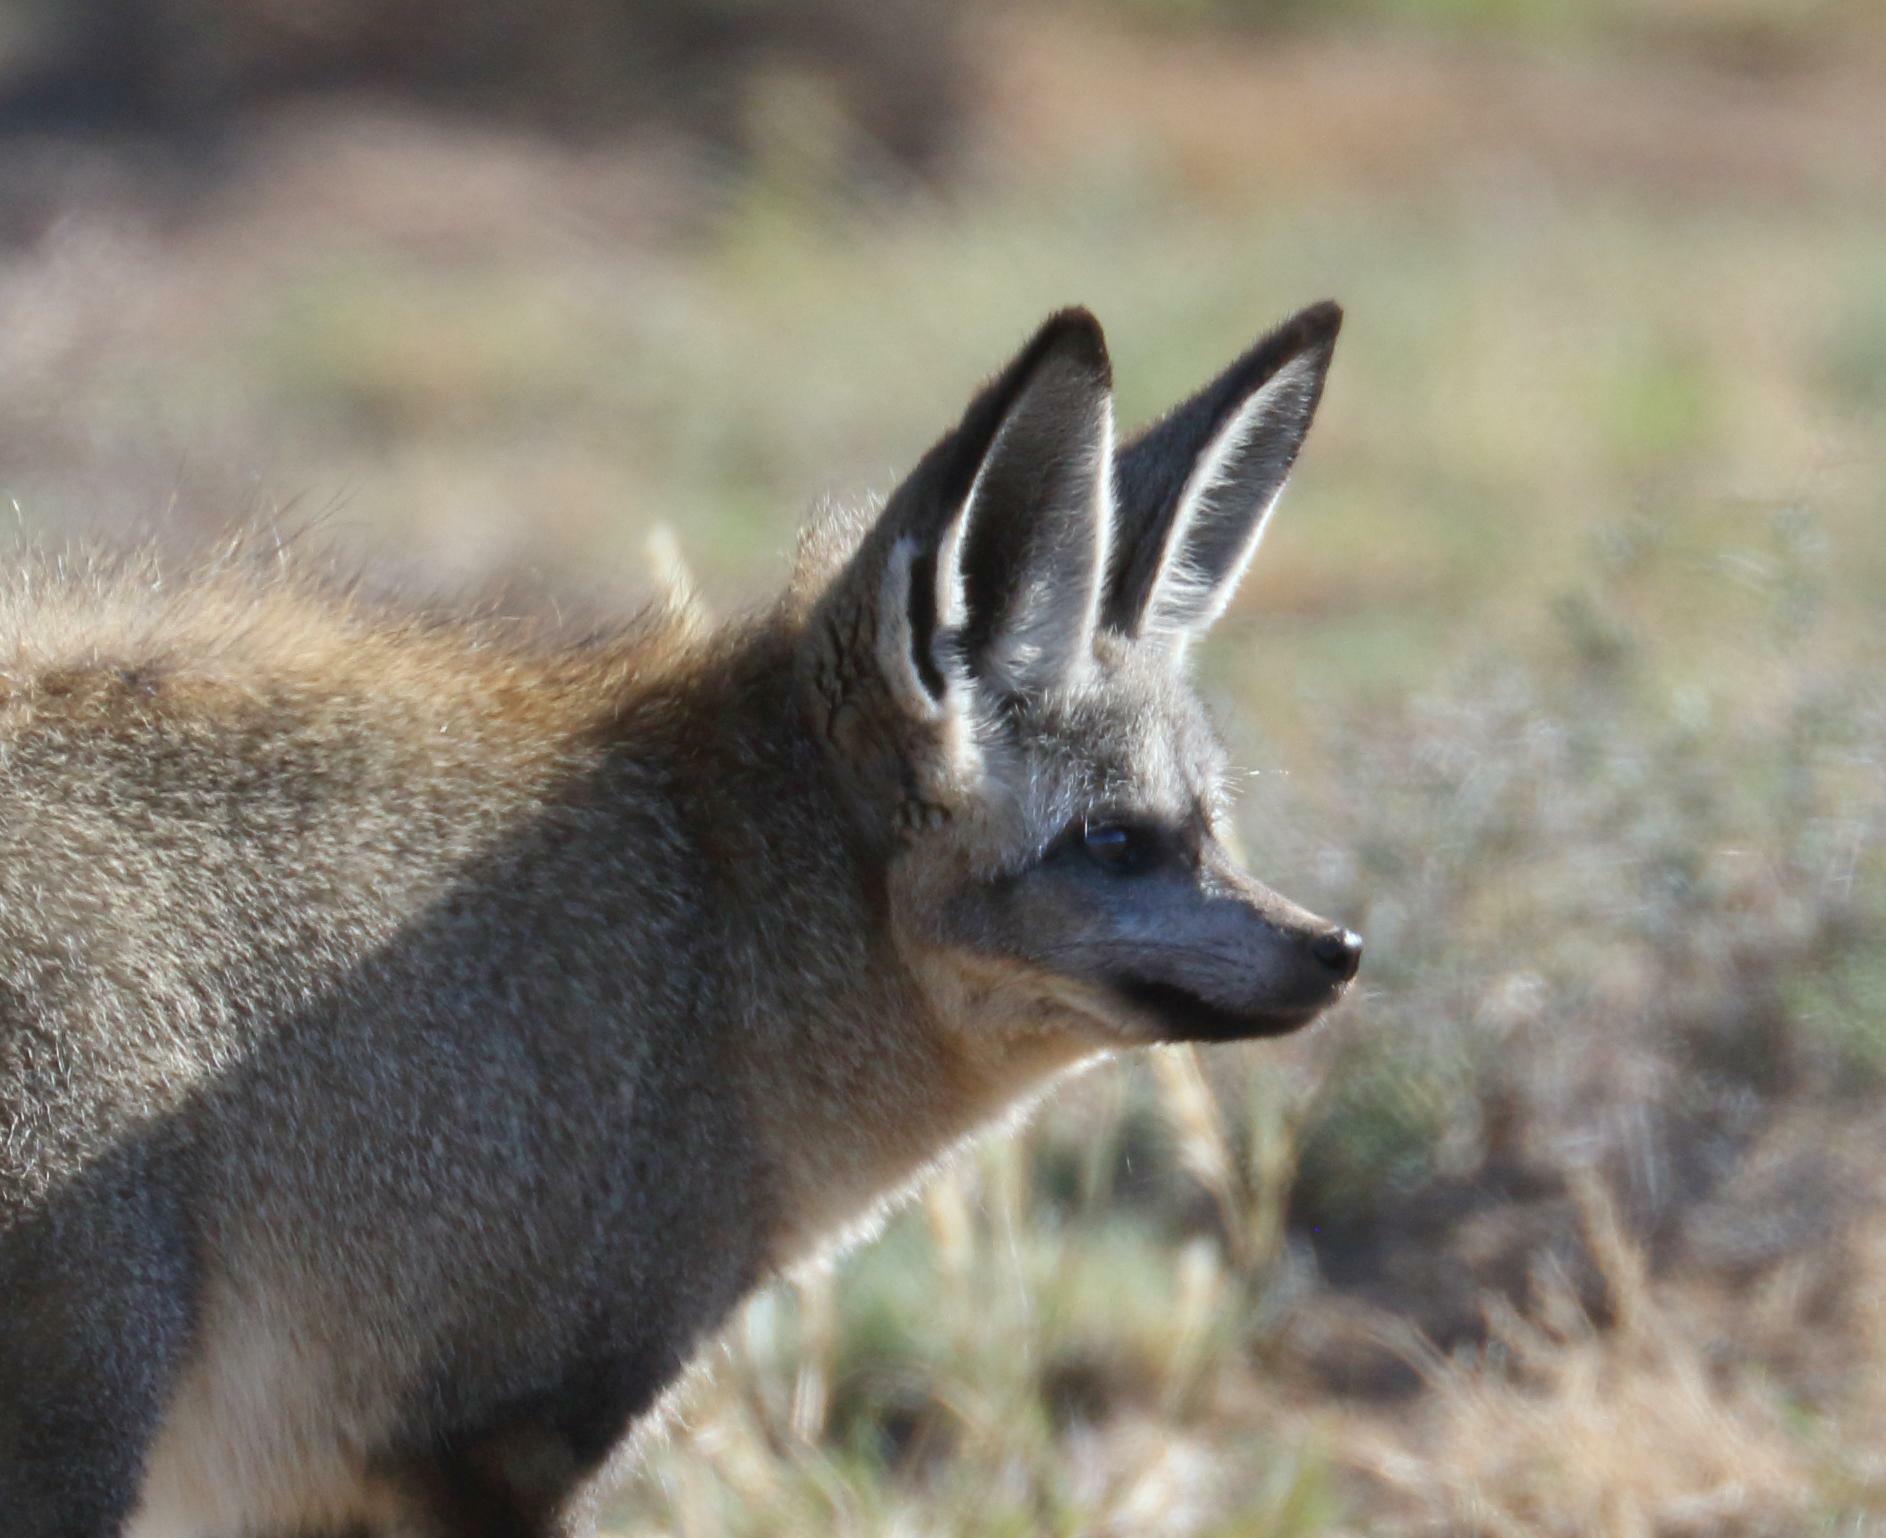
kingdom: Animalia
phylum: Chordata
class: Mammalia
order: Carnivora
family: Canidae
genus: Otocyon
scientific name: Otocyon megalotis
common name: Bat-eared fox
